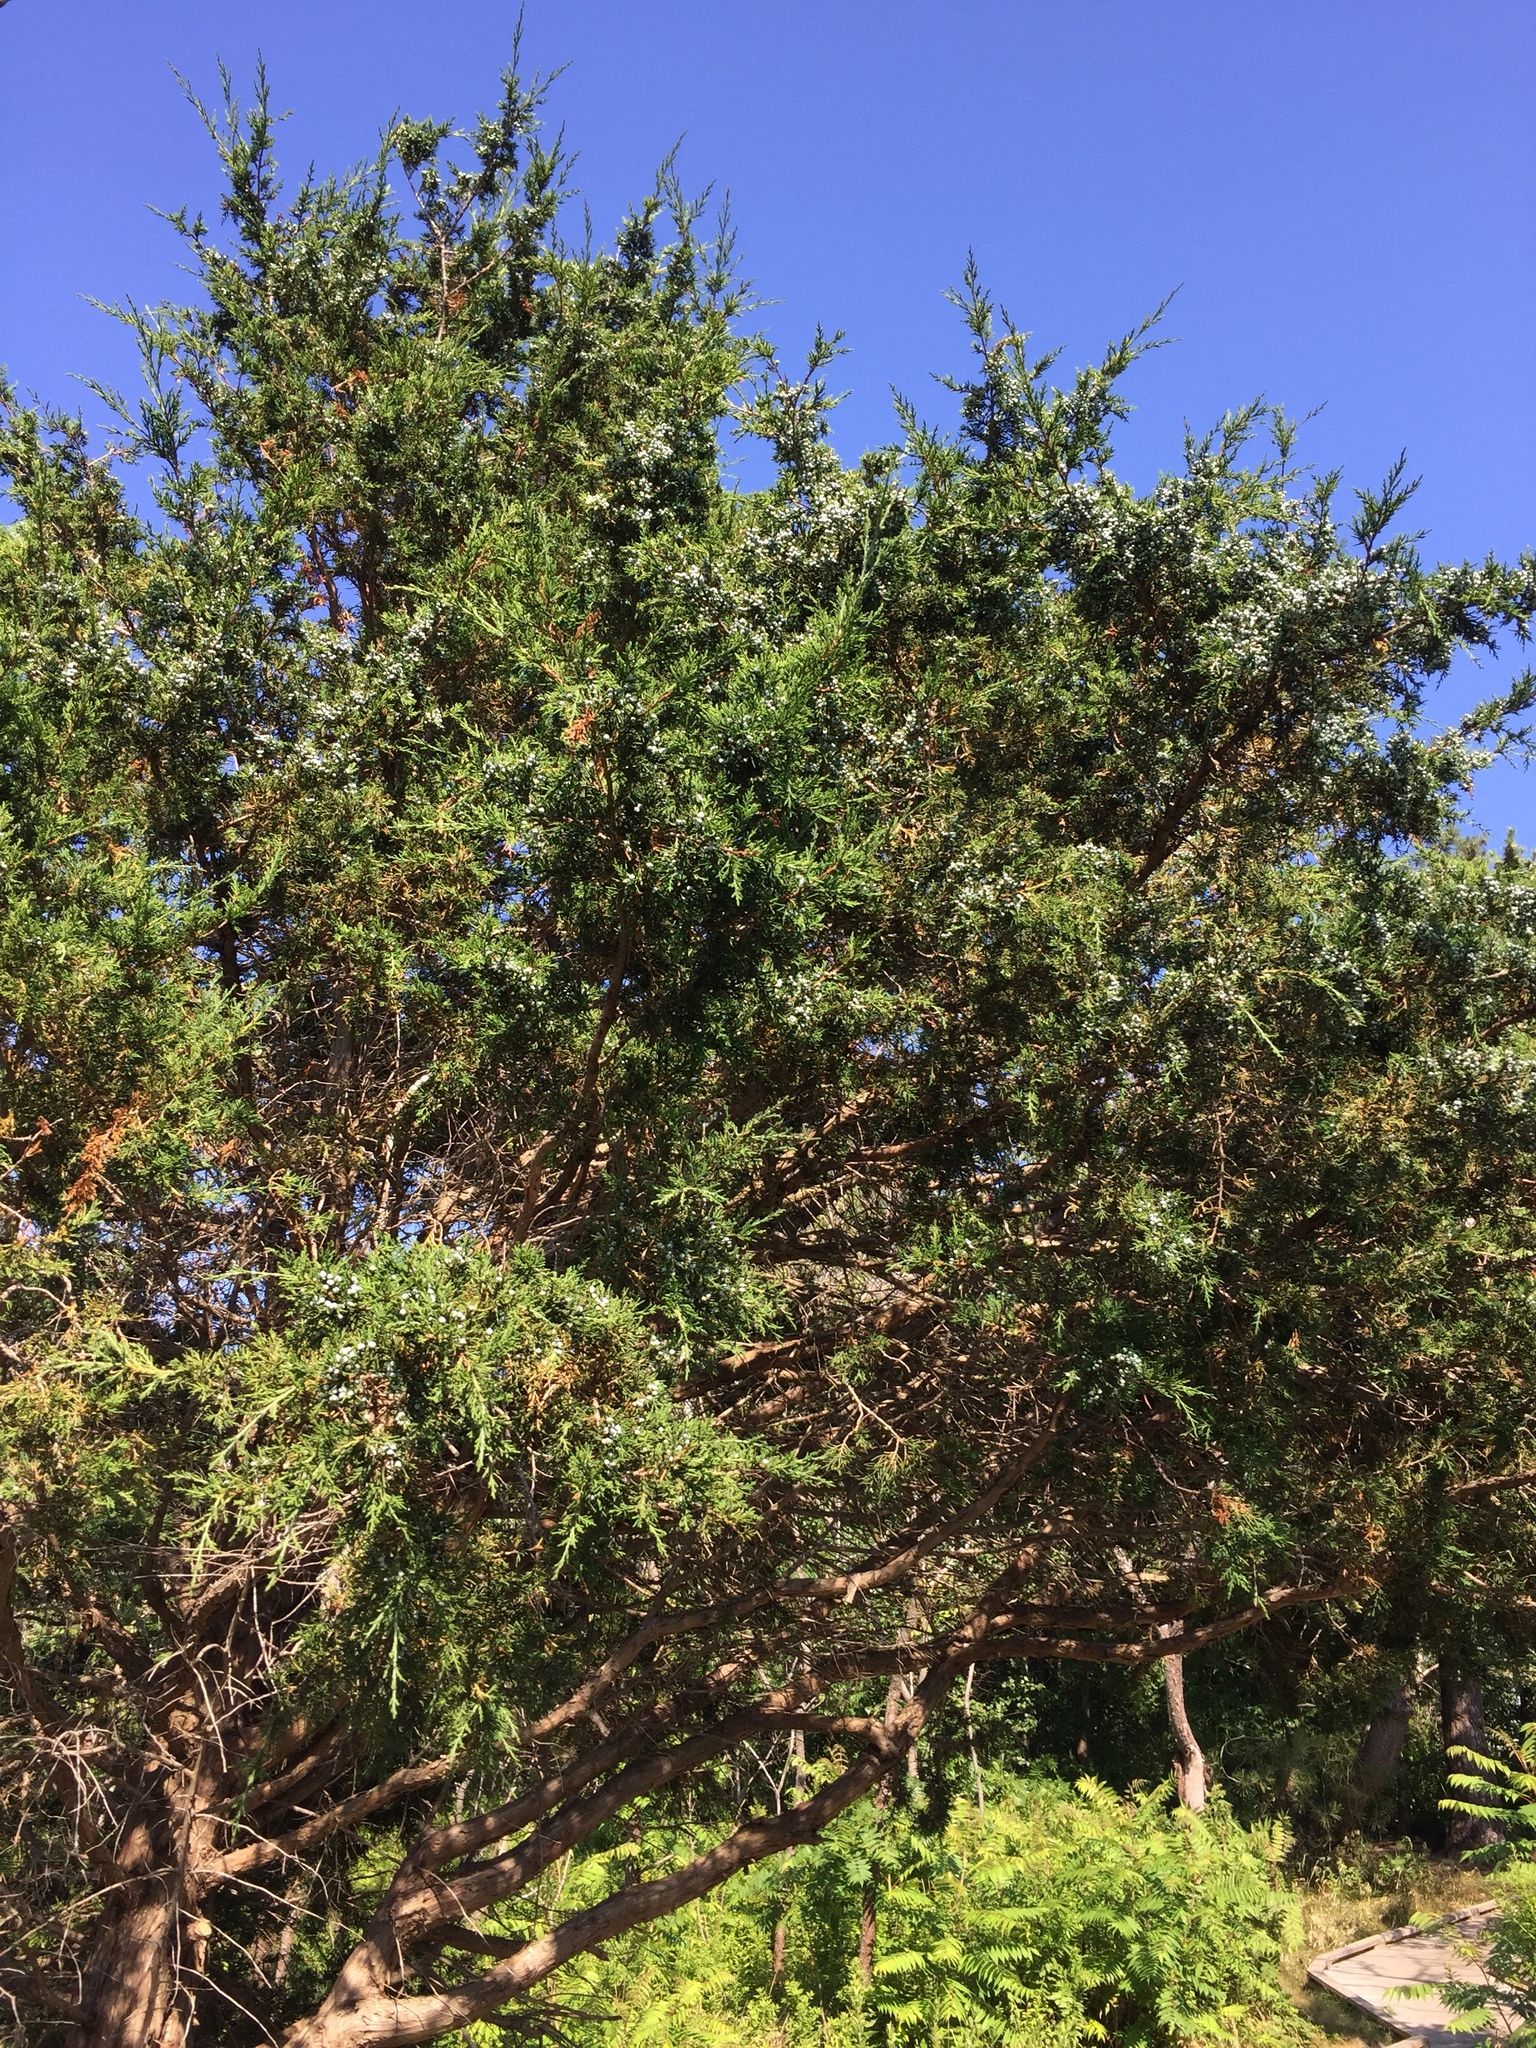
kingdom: Plantae
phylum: Tracheophyta
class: Pinopsida
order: Pinales
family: Cupressaceae
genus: Juniperus
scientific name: Juniperus virginiana
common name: Red juniper
